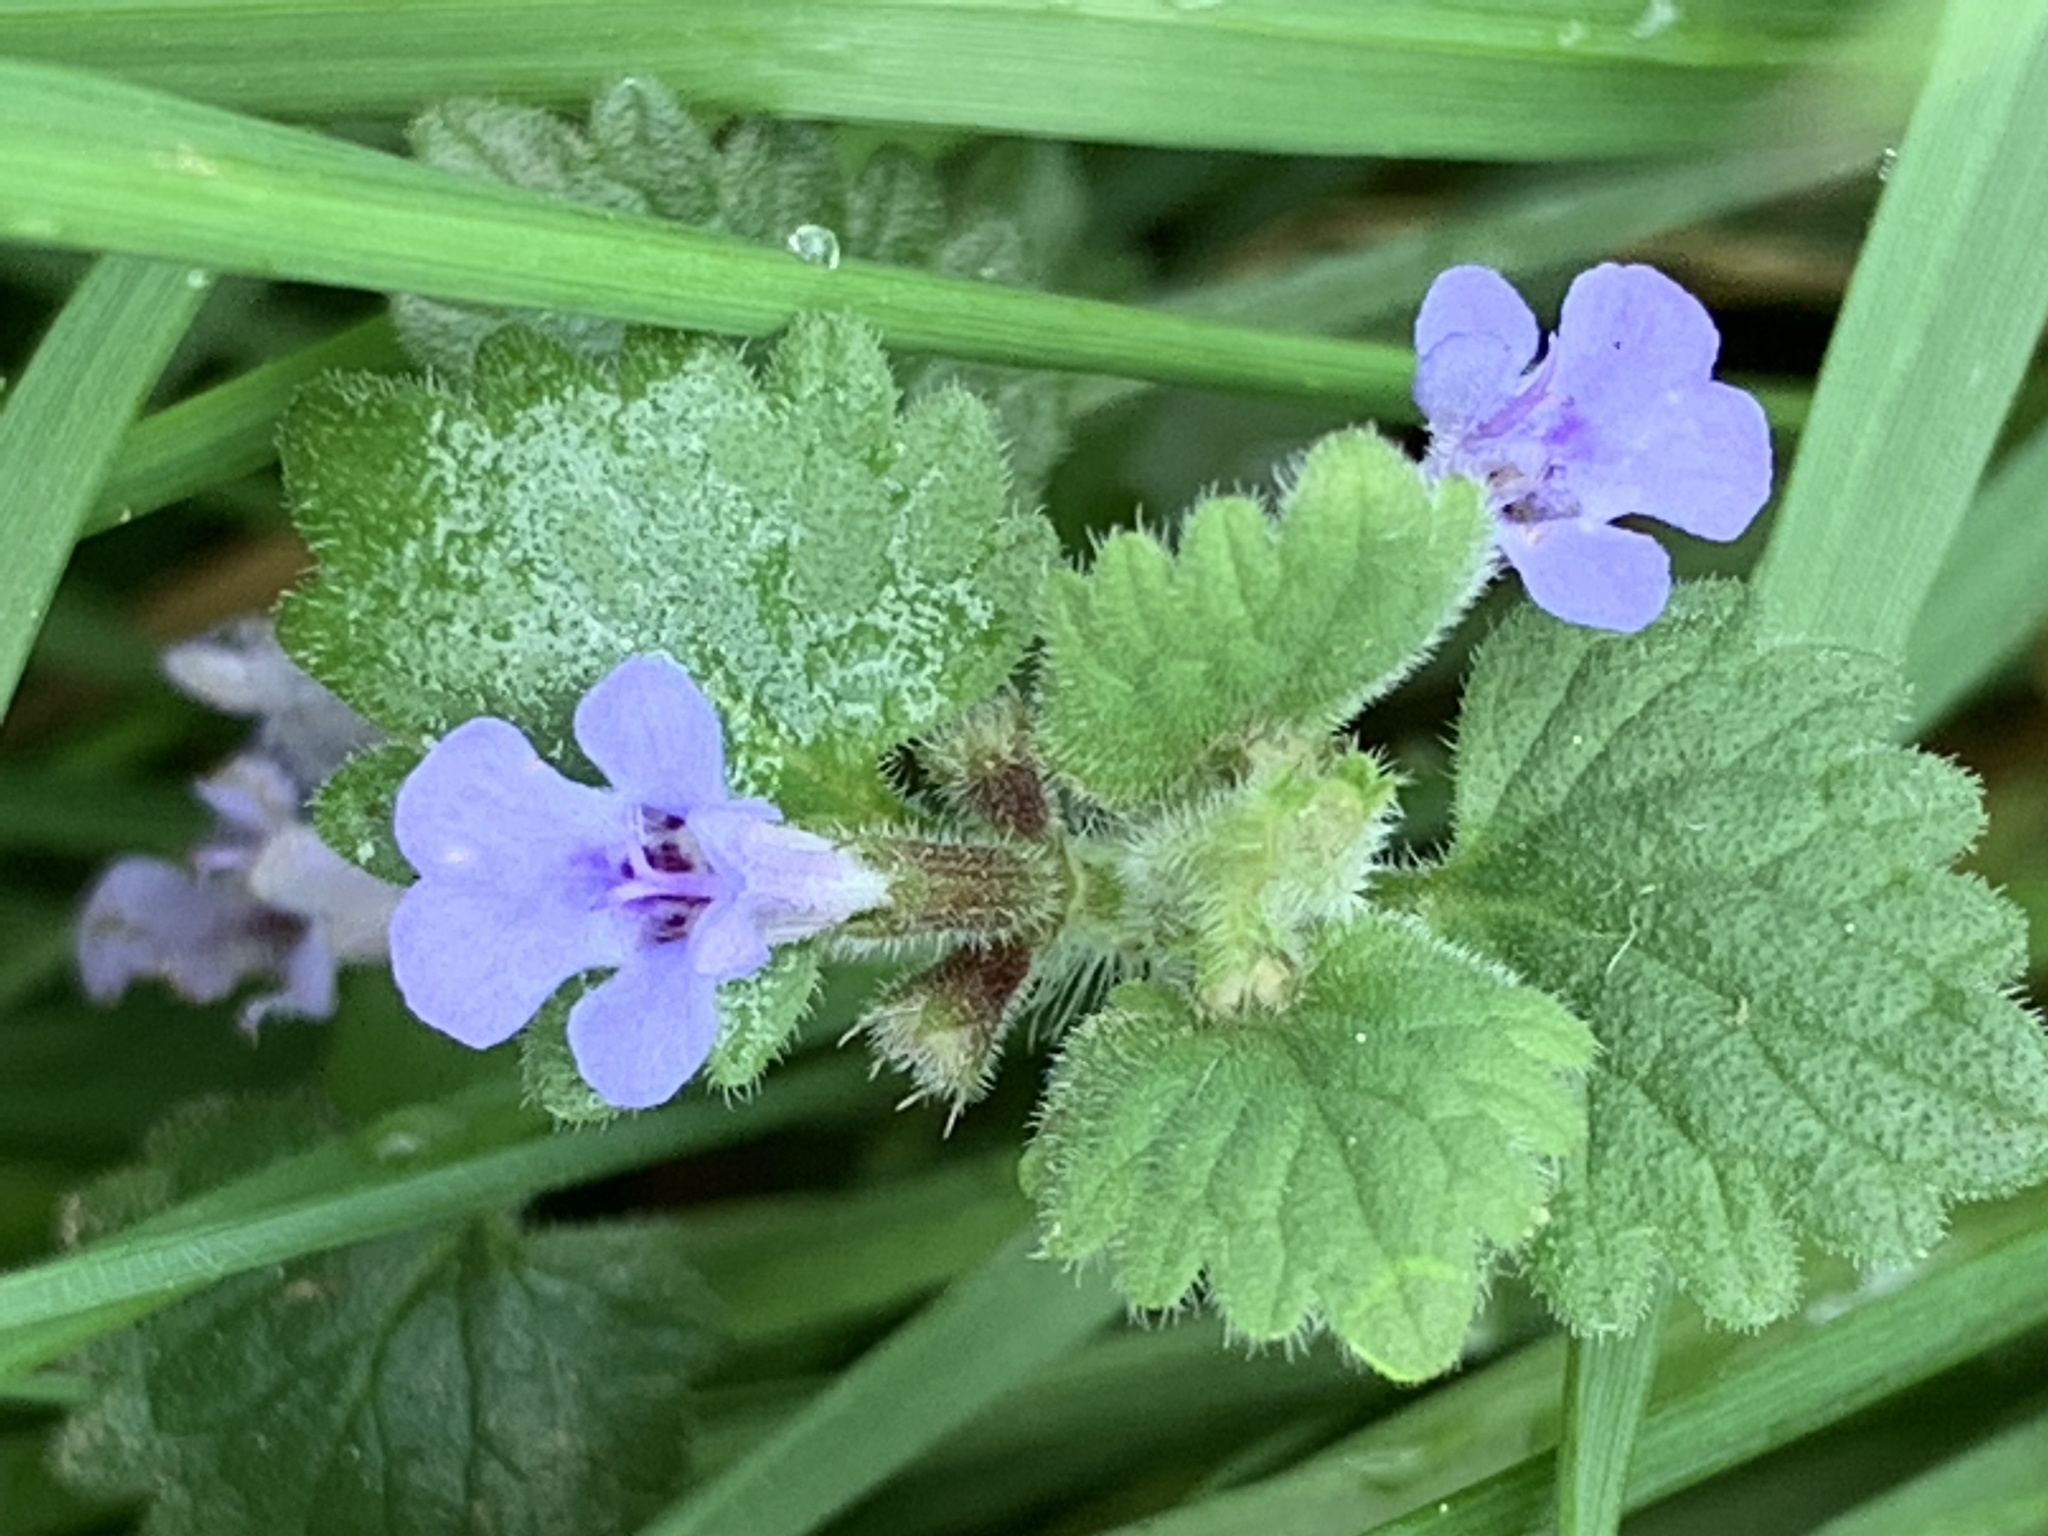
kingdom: Plantae
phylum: Tracheophyta
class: Magnoliopsida
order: Lamiales
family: Lamiaceae
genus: Glechoma
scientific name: Glechoma hederacea
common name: Ground ivy
